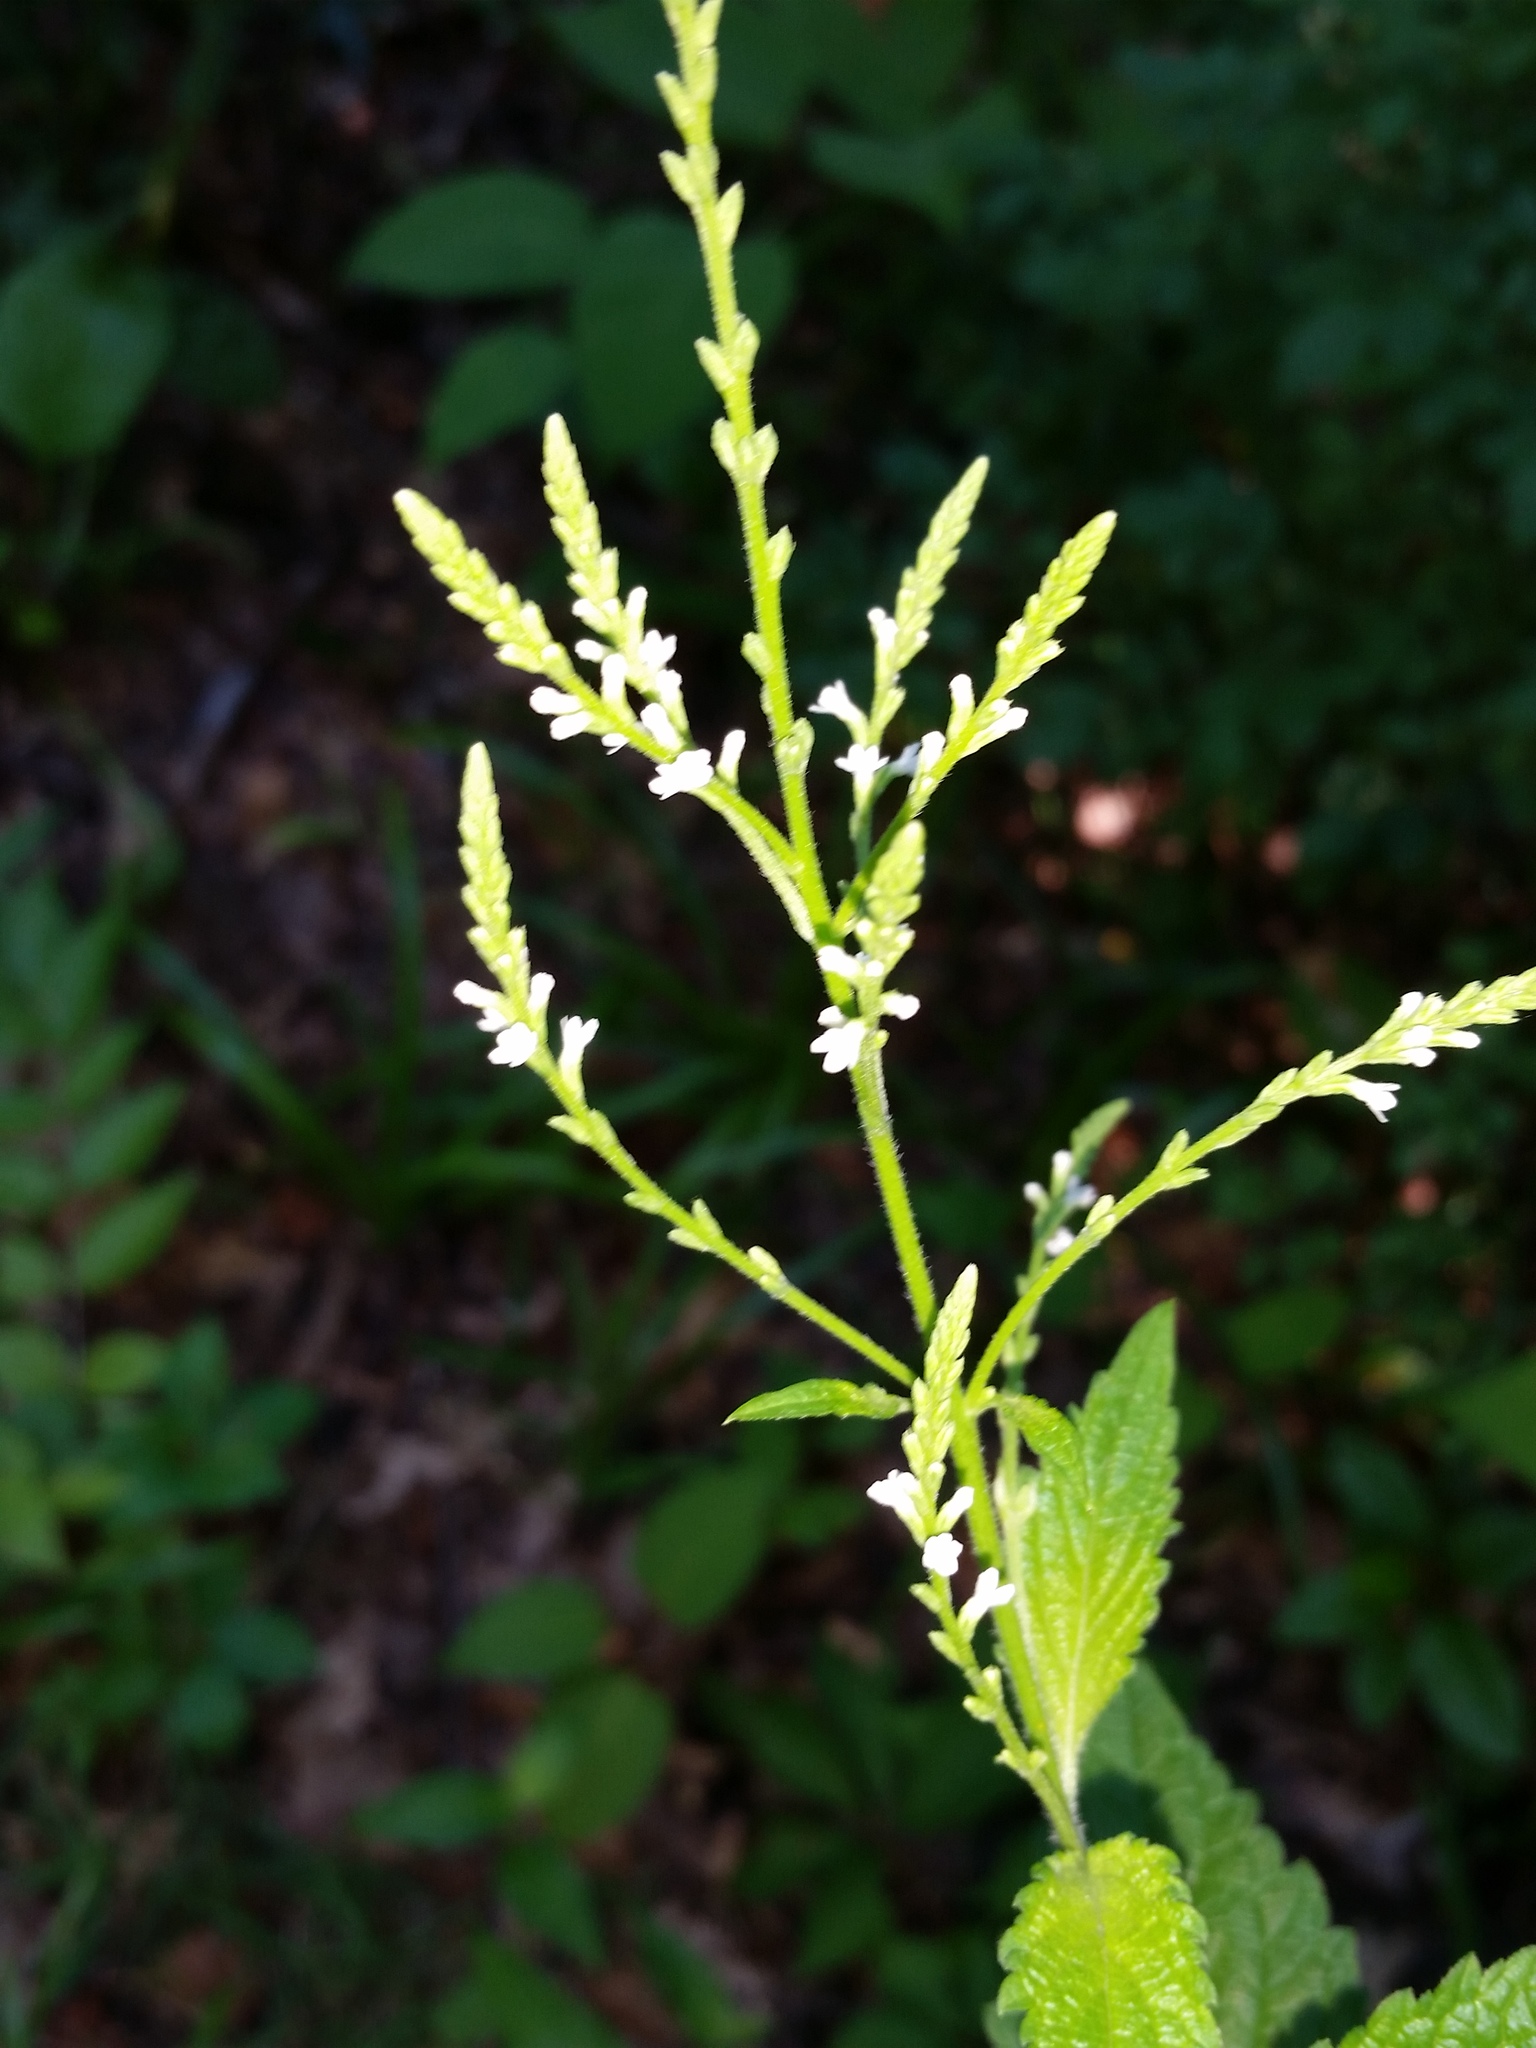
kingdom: Plantae
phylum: Tracheophyta
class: Magnoliopsida
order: Lamiales
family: Verbenaceae
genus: Verbena
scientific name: Verbena urticifolia
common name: Nettle-leaved vervain
